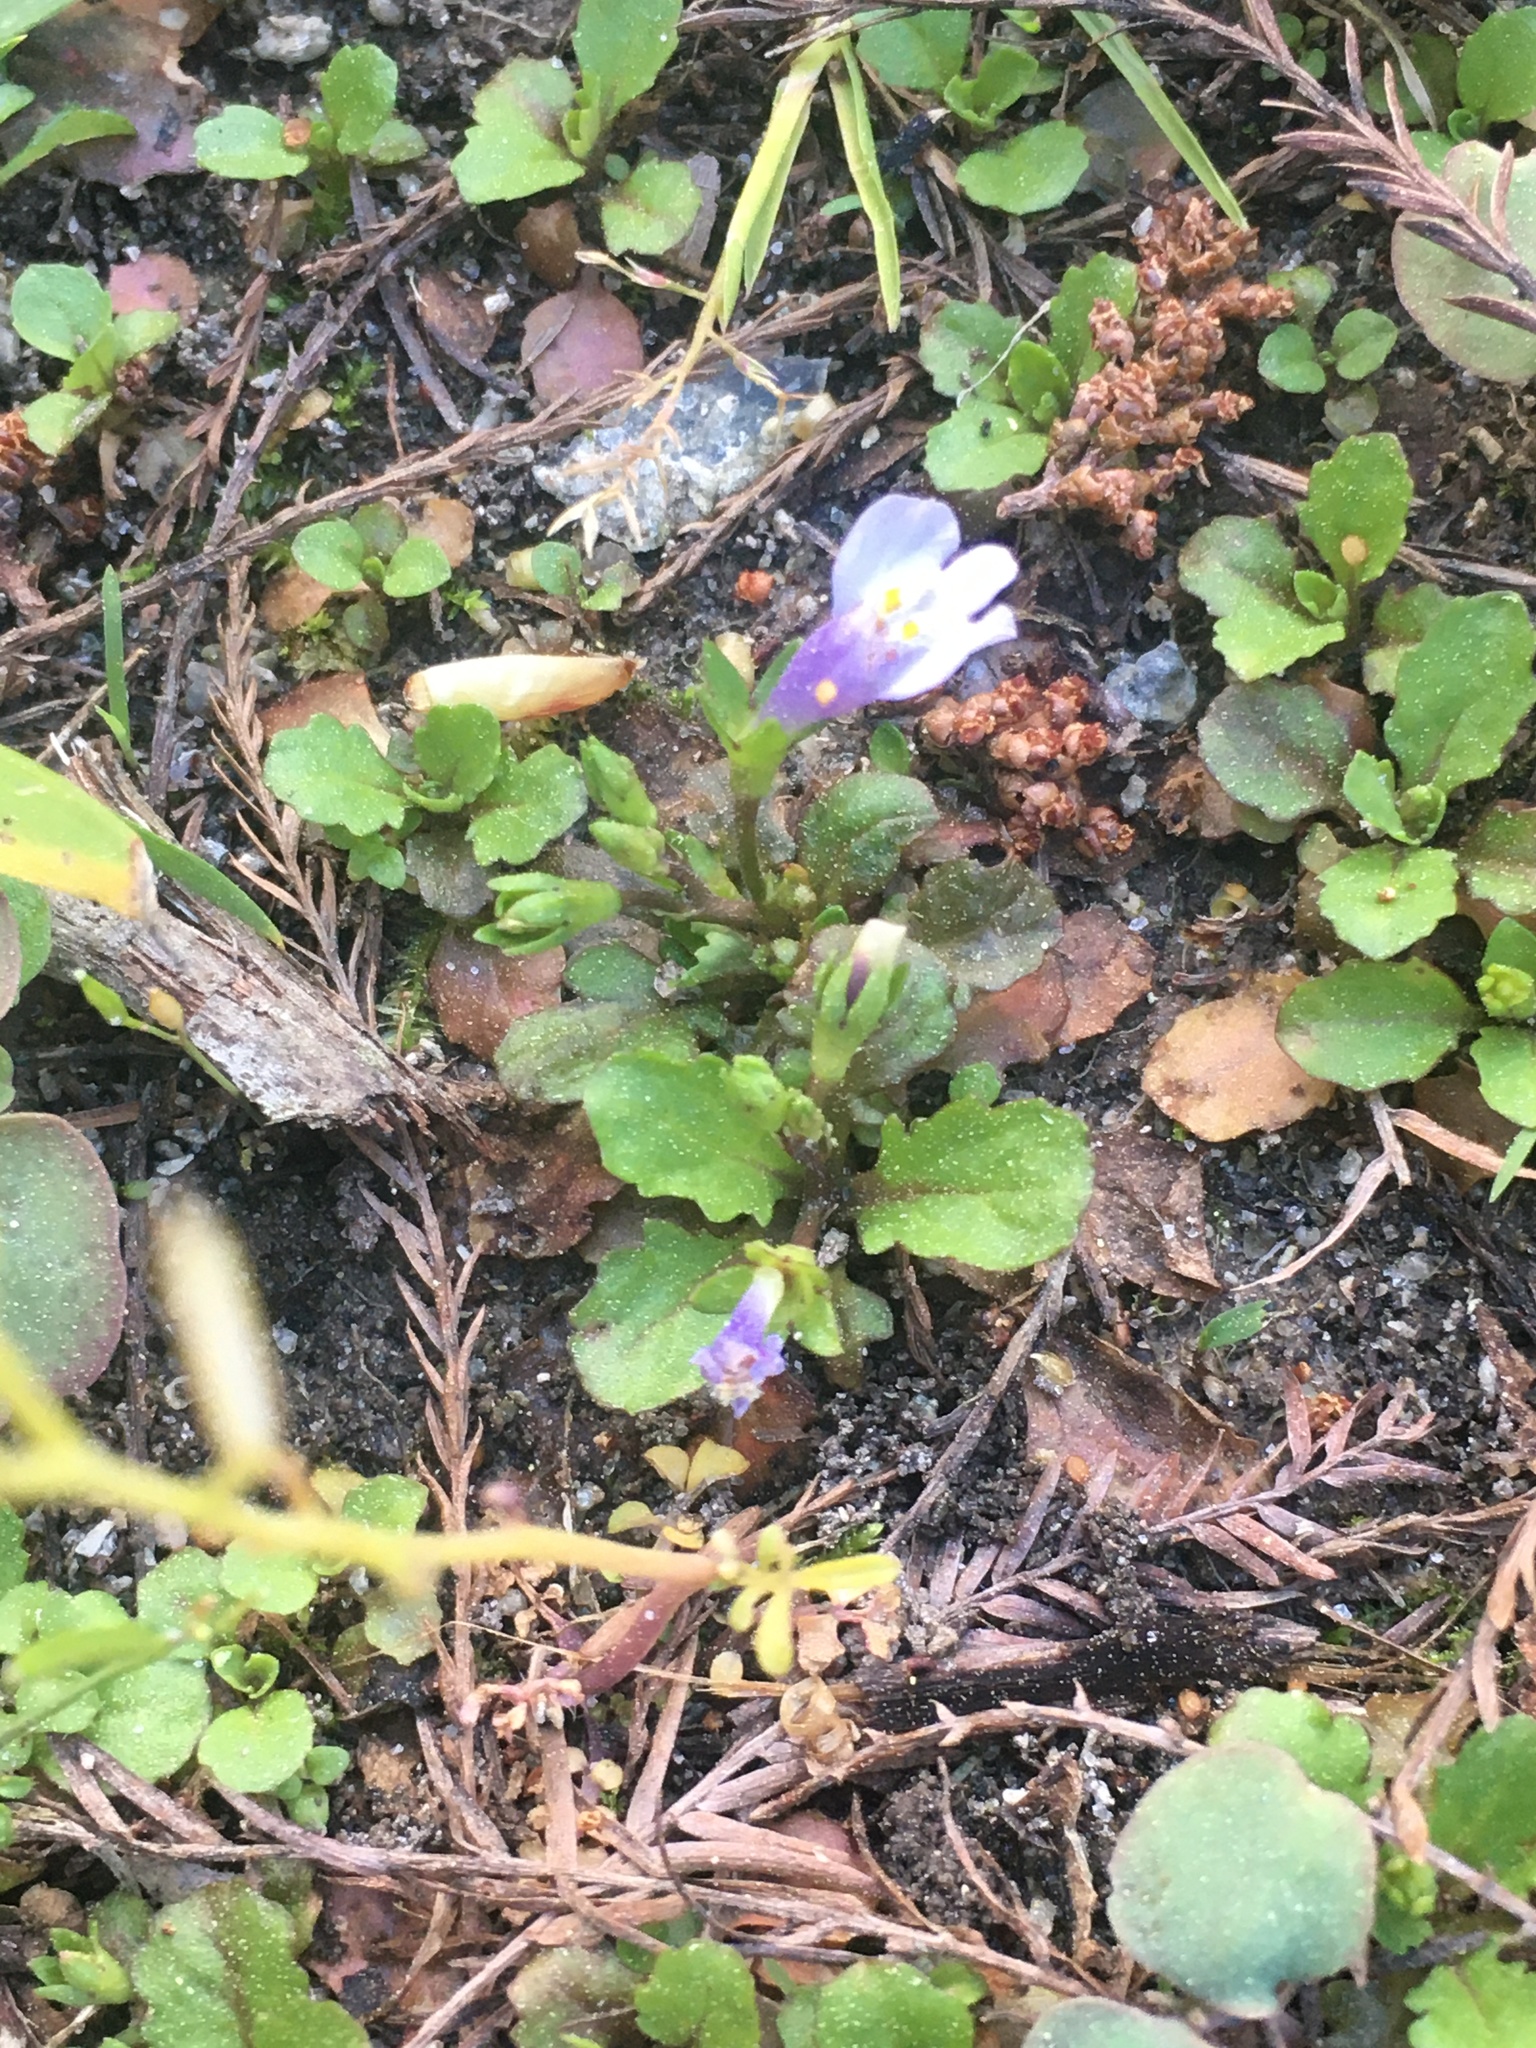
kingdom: Plantae
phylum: Tracheophyta
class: Magnoliopsida
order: Lamiales
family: Mazaceae
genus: Mazus
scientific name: Mazus pumilus
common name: Japanese mazus
